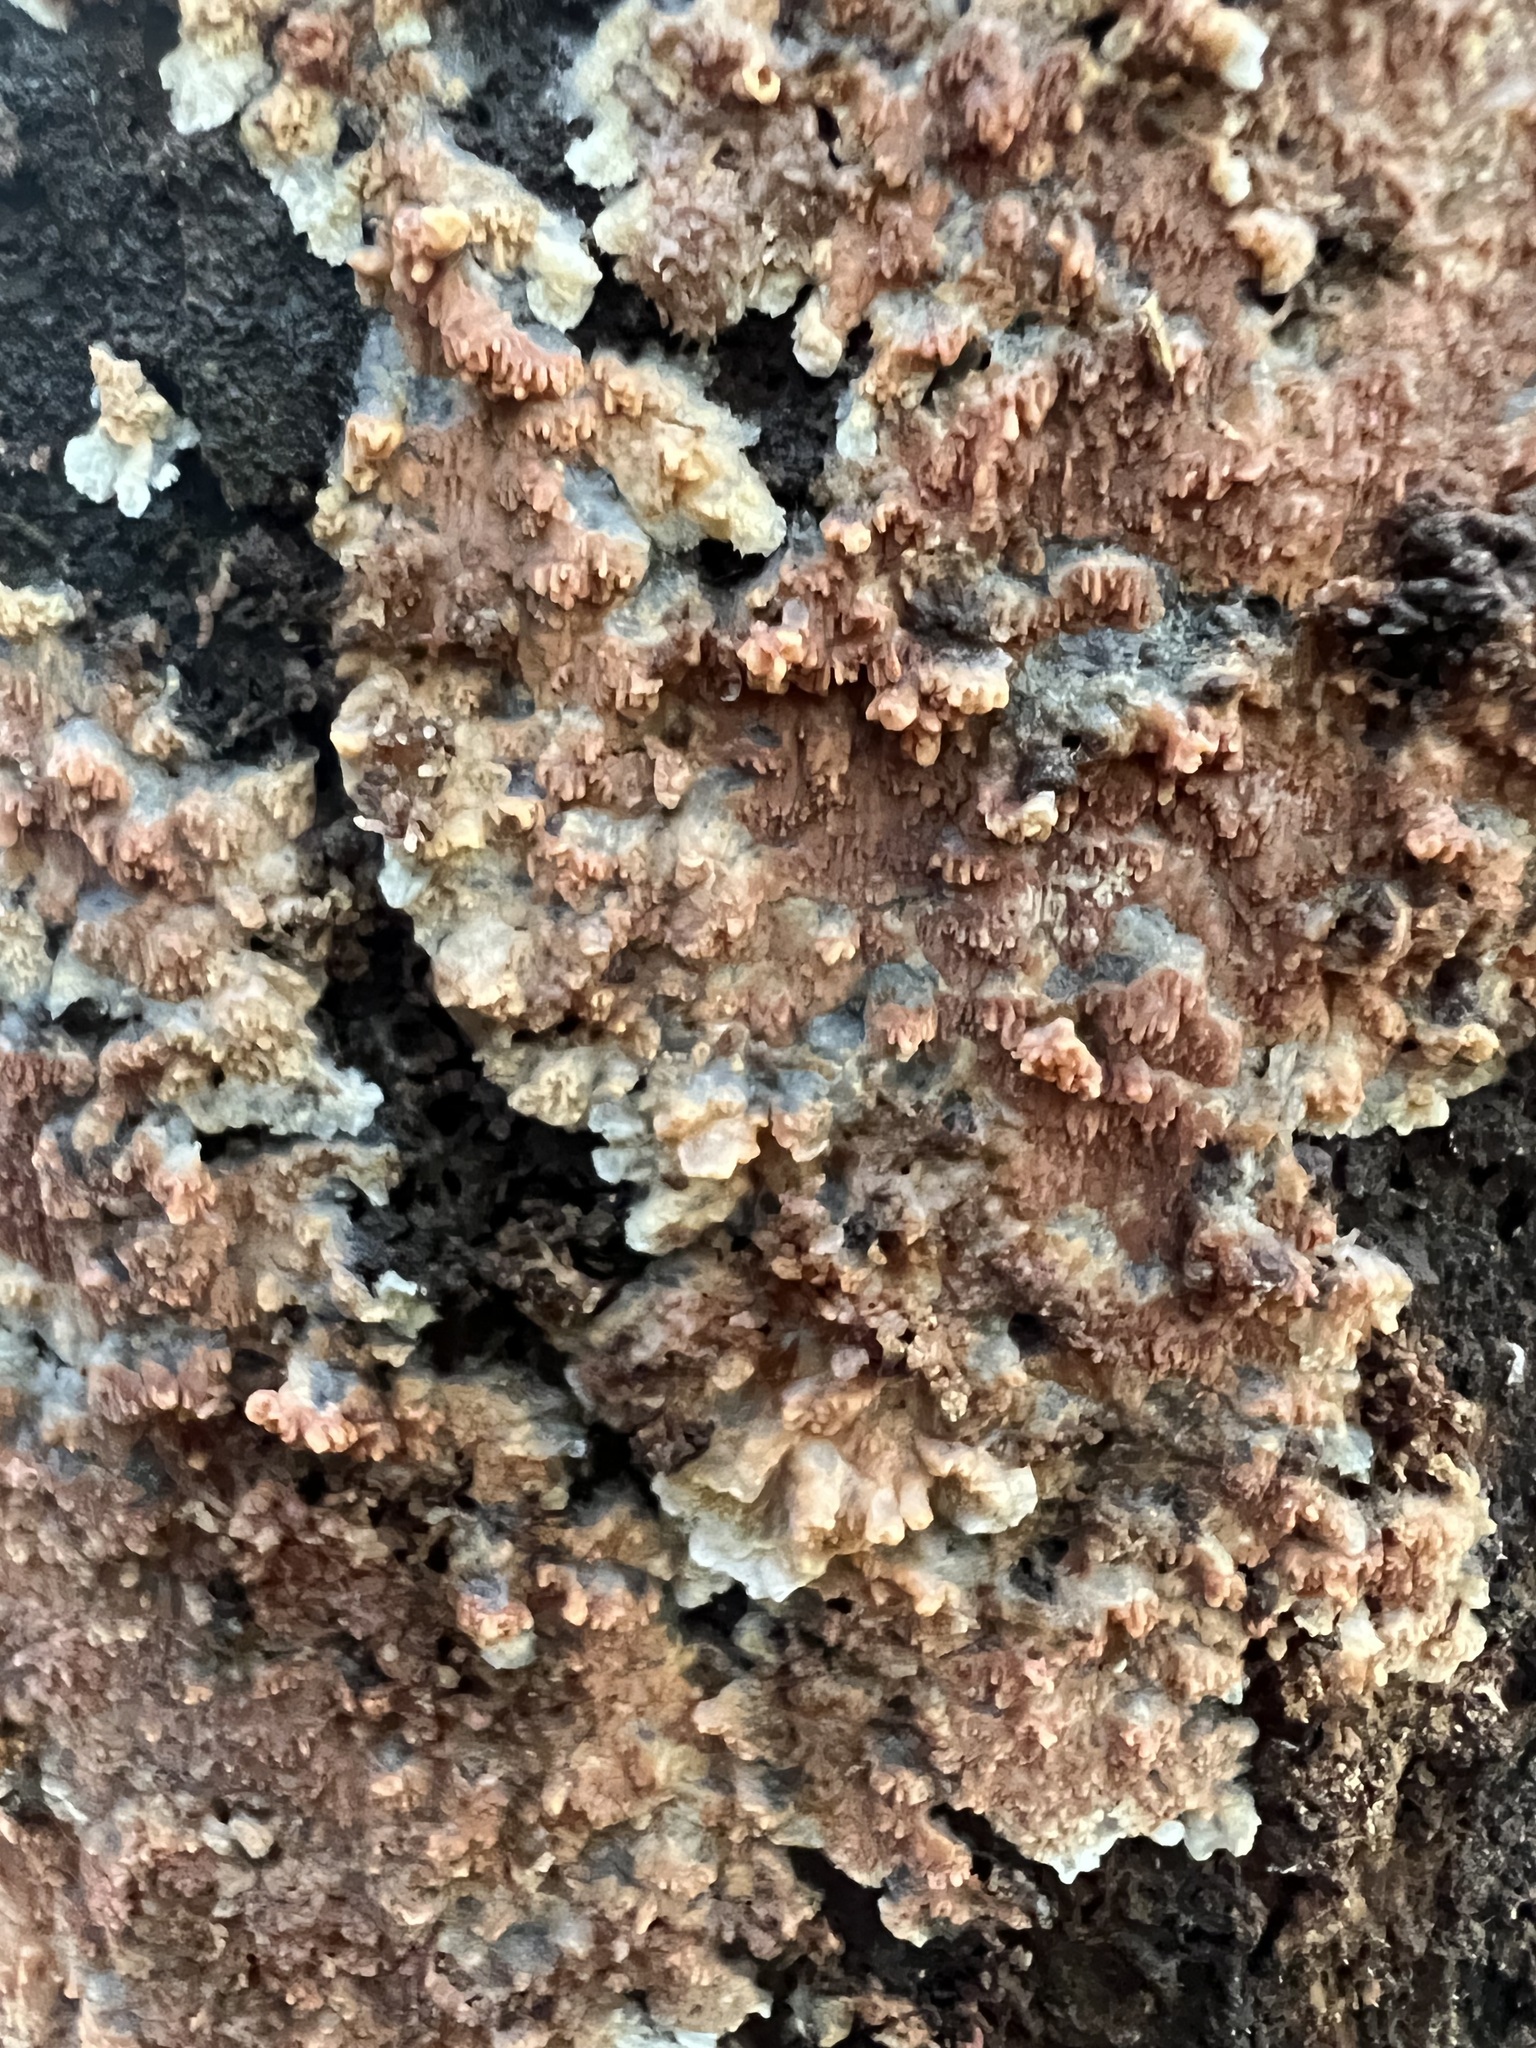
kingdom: Fungi
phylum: Basidiomycota
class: Agaricomycetes
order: Polyporales
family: Irpicaceae
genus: Meruliopsis
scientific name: Meruliopsis taxicola
